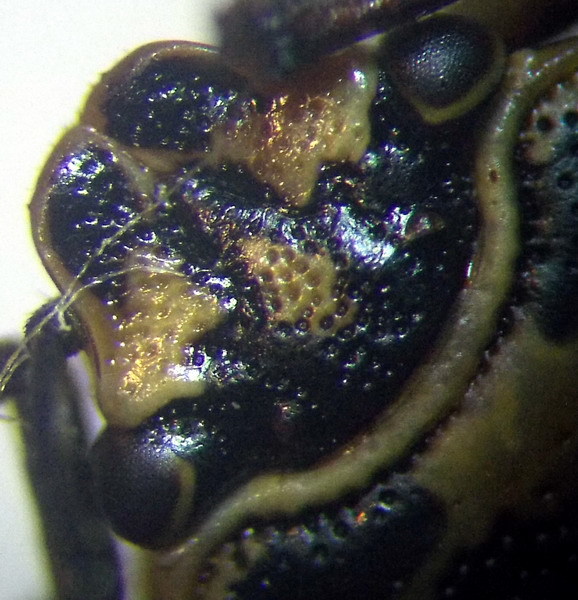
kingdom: Animalia
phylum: Arthropoda
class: Insecta
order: Hemiptera
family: Pentatomidae
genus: Eurydema
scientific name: Eurydema ornata
